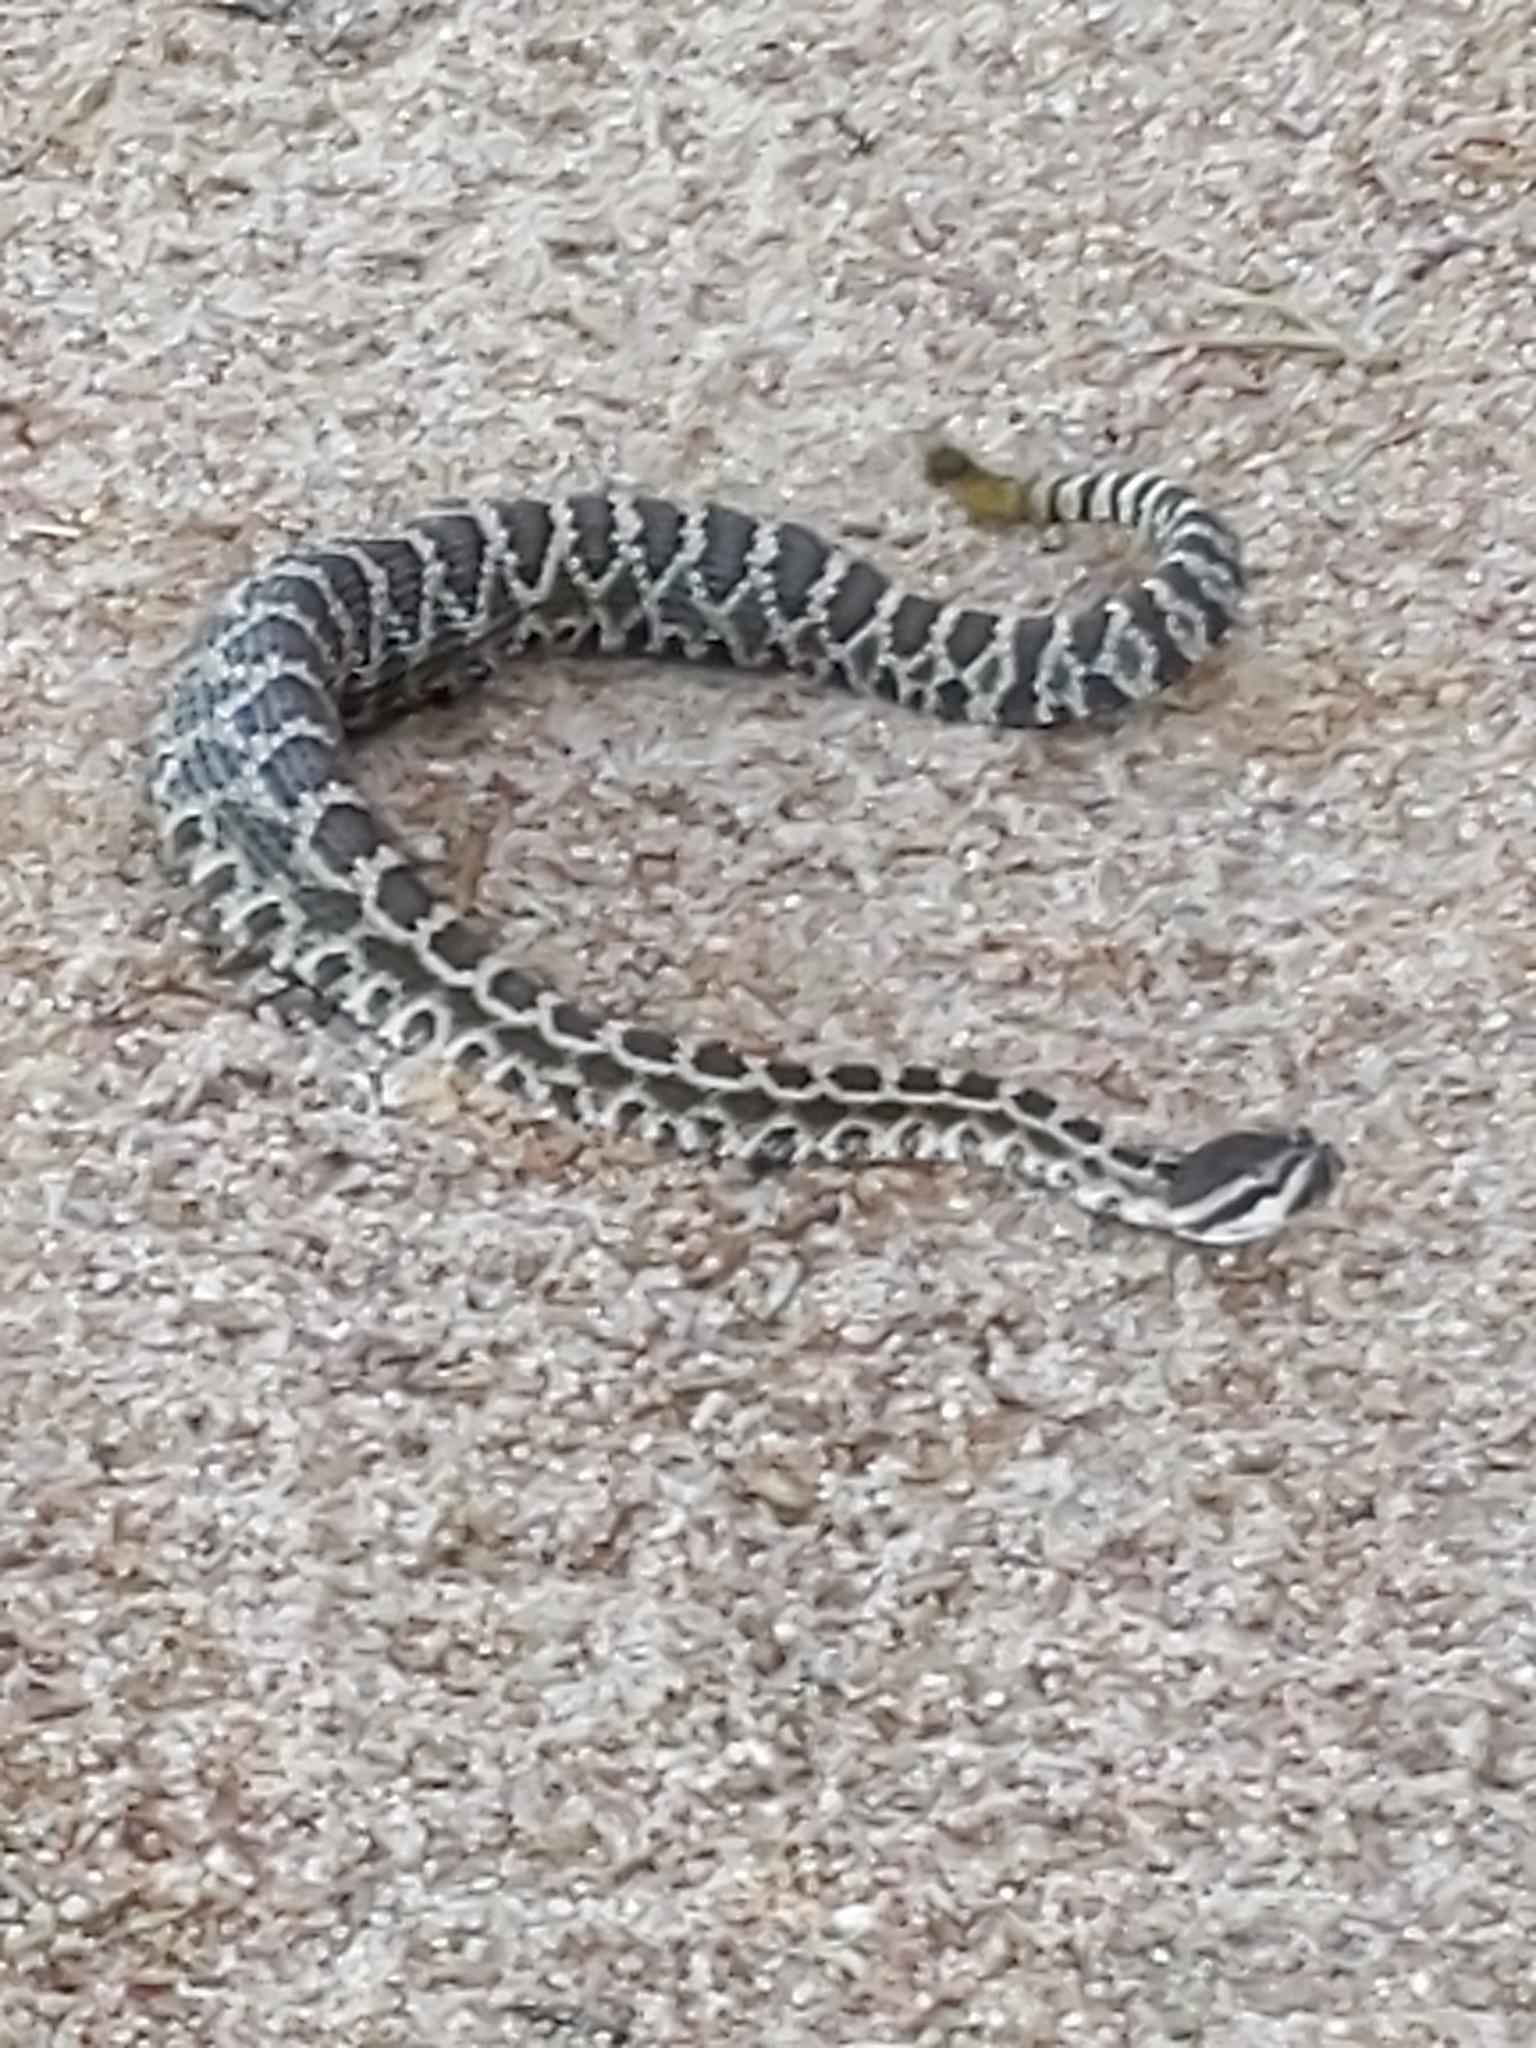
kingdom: Animalia
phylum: Chordata
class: Squamata
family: Viperidae
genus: Crotalus
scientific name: Crotalus oreganus
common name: Abyssus
